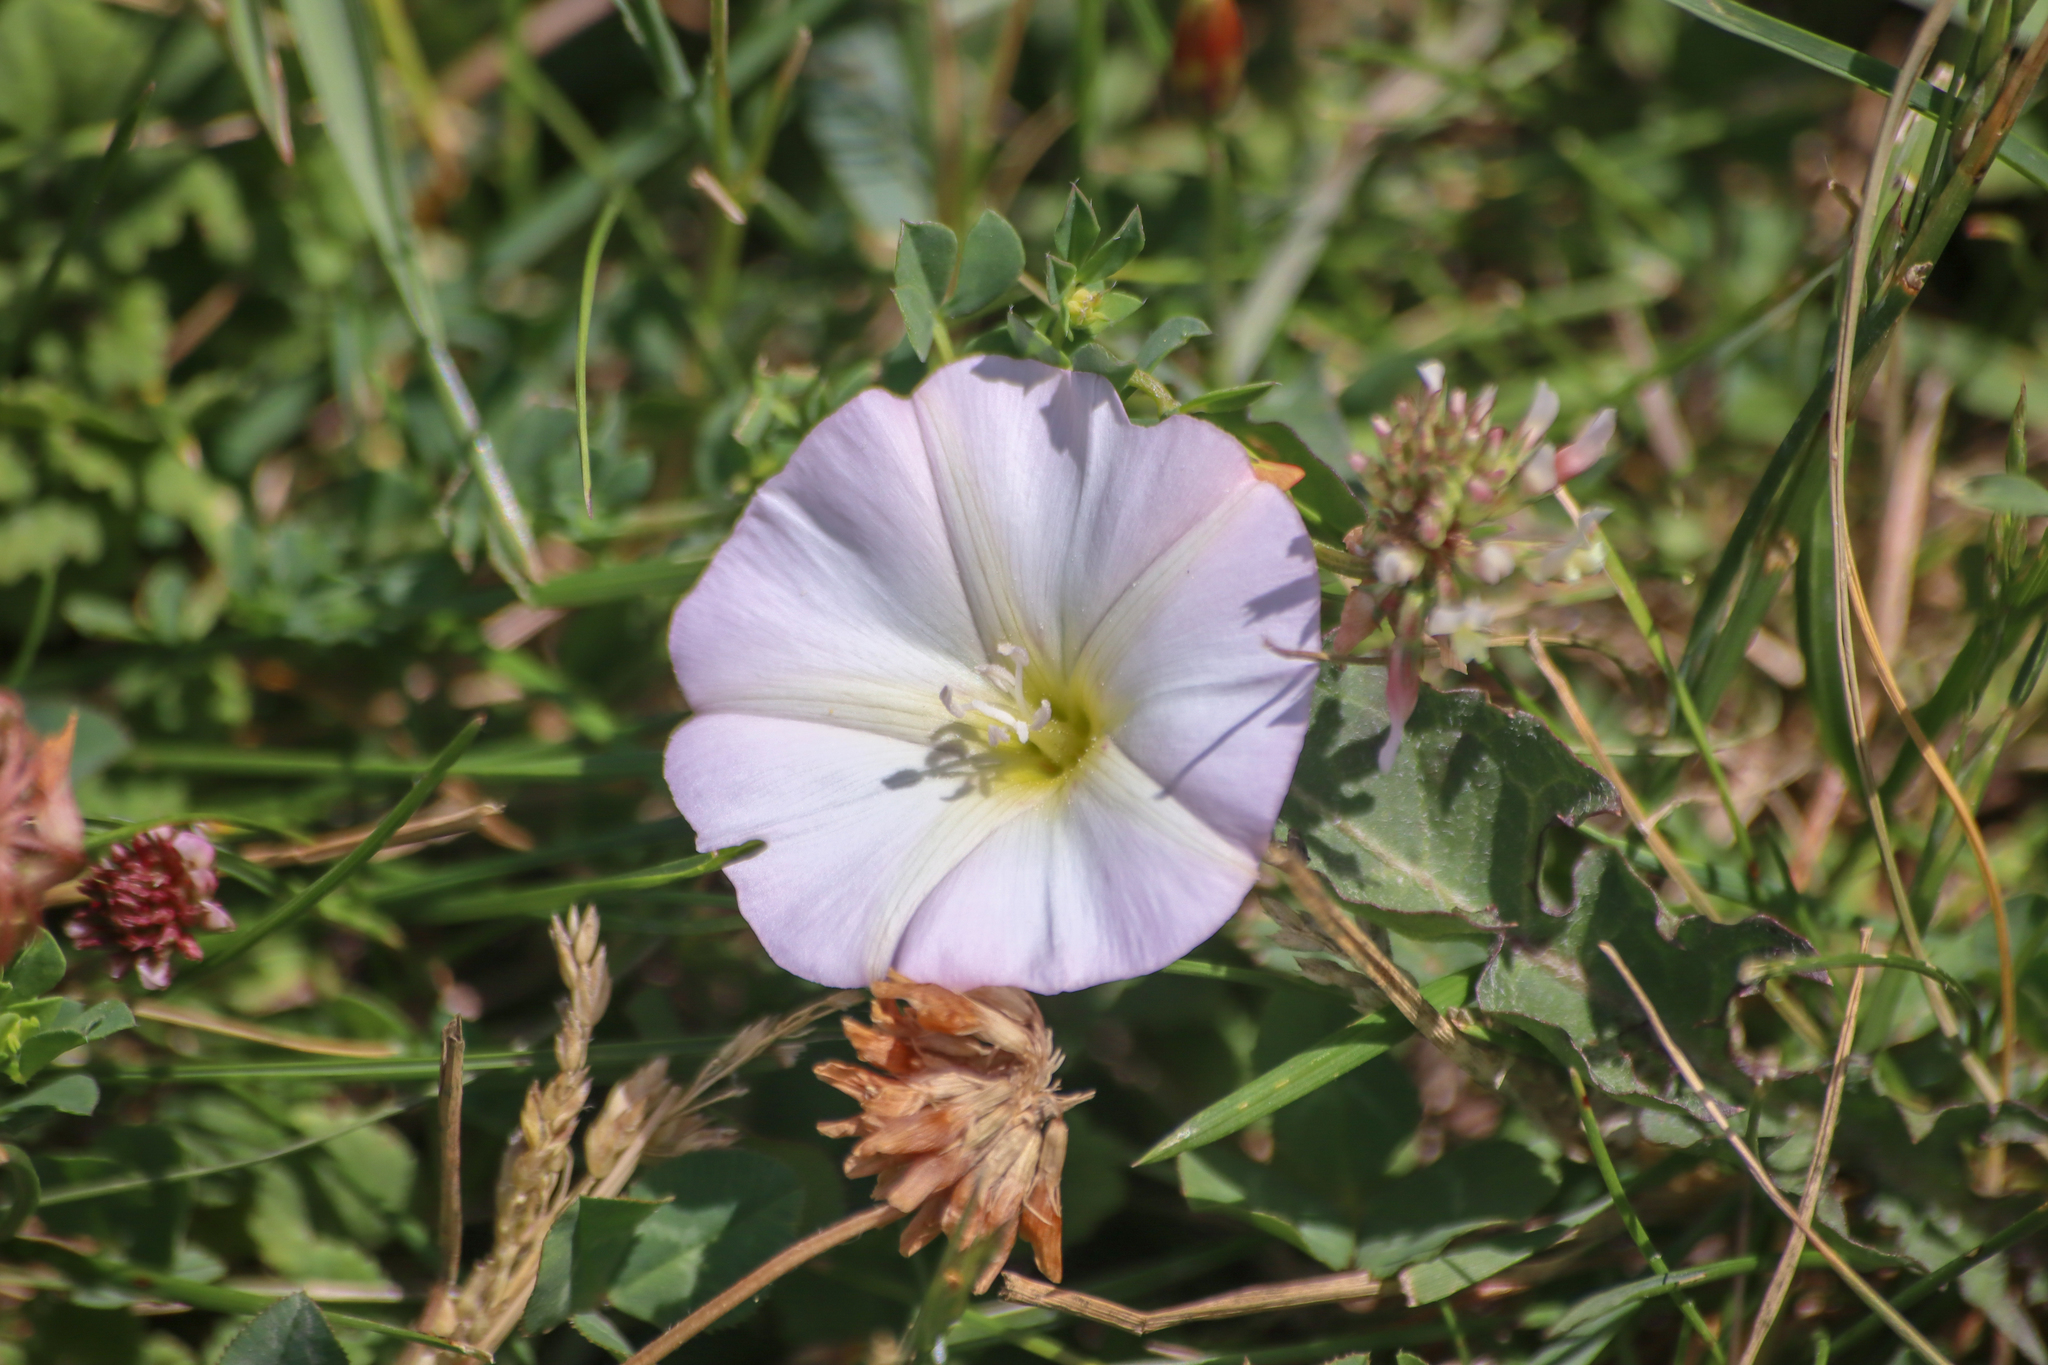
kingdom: Plantae
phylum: Tracheophyta
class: Magnoliopsida
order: Solanales
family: Convolvulaceae
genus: Convolvulus
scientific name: Convolvulus arvensis
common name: Field bindweed
